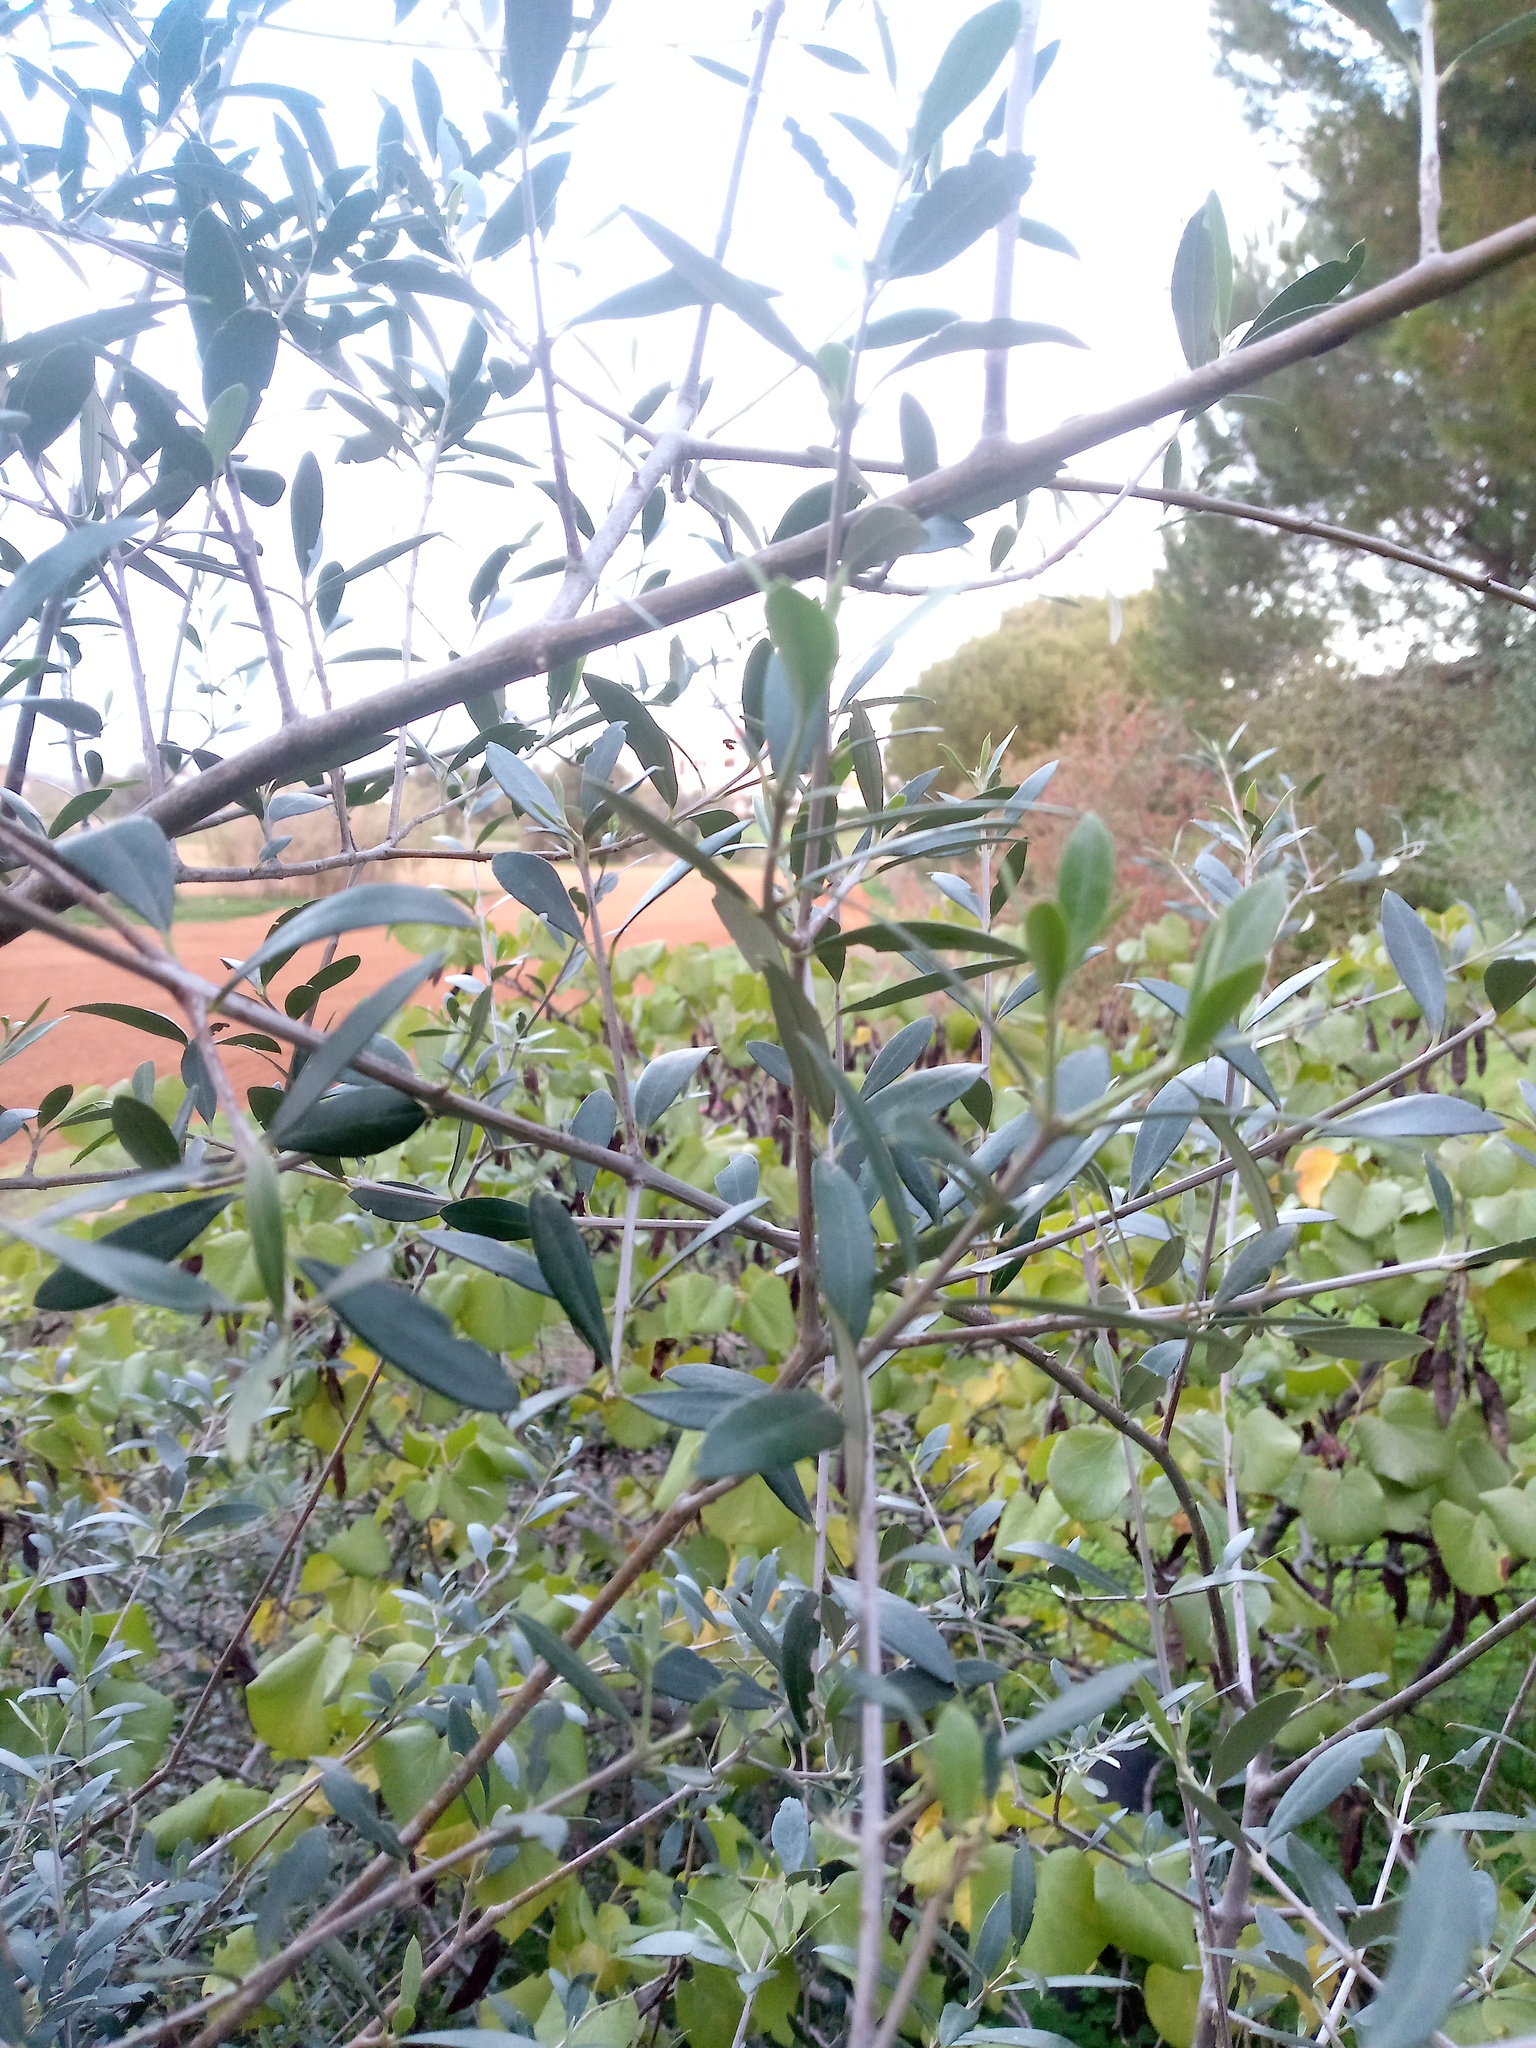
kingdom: Plantae
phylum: Tracheophyta
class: Magnoliopsida
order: Lamiales
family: Oleaceae
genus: Olea
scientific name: Olea europaea
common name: Olive
